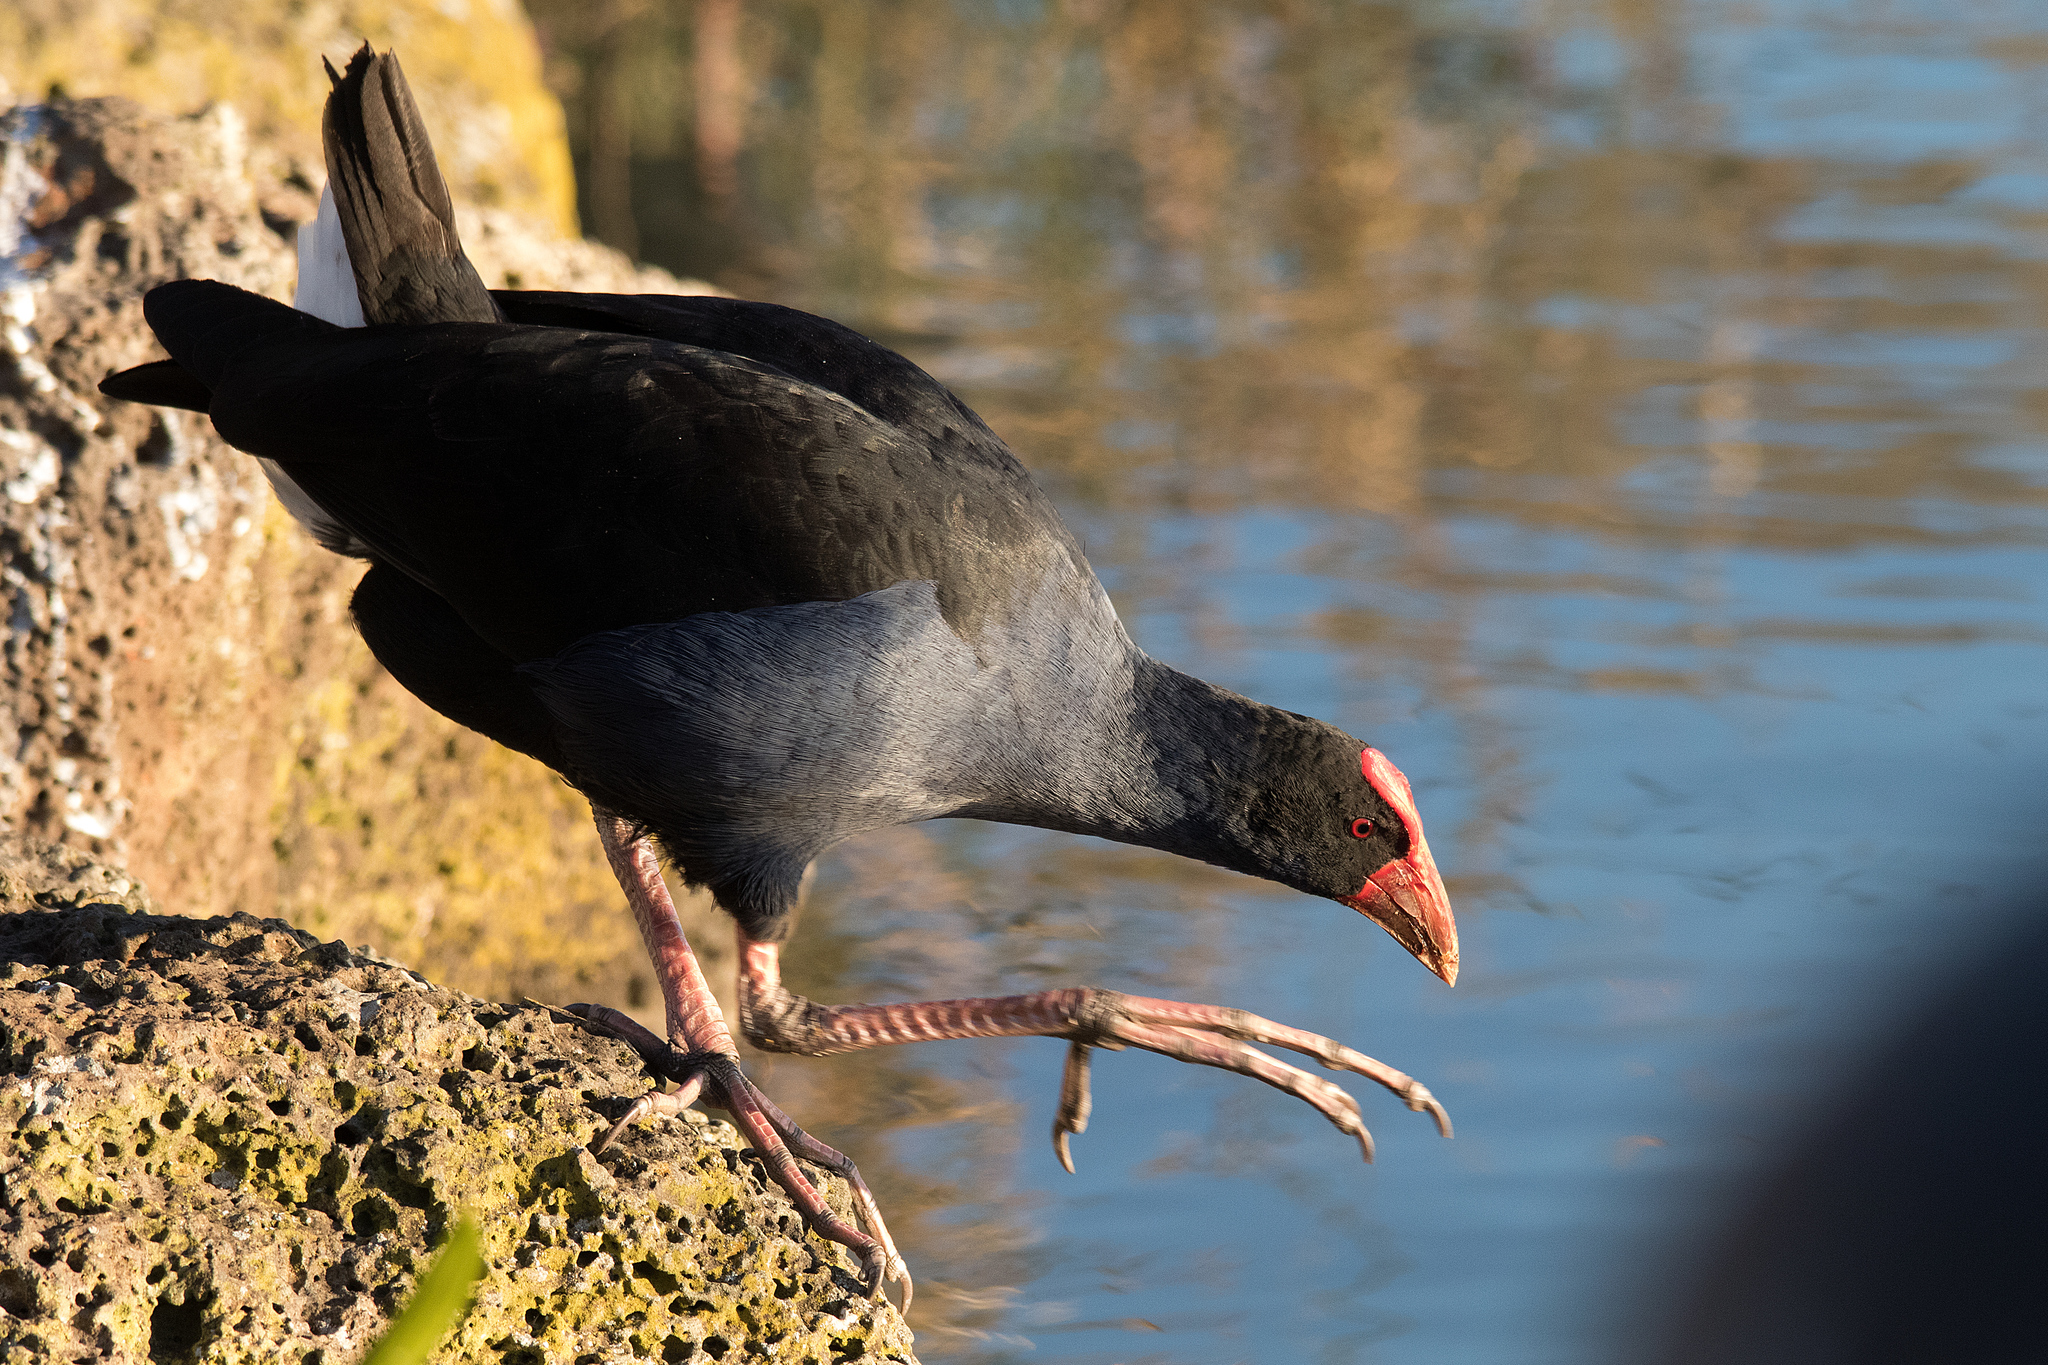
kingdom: Animalia
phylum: Chordata
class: Aves
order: Gruiformes
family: Rallidae
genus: Porphyrio
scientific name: Porphyrio melanotus
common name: Australasian swamphen
